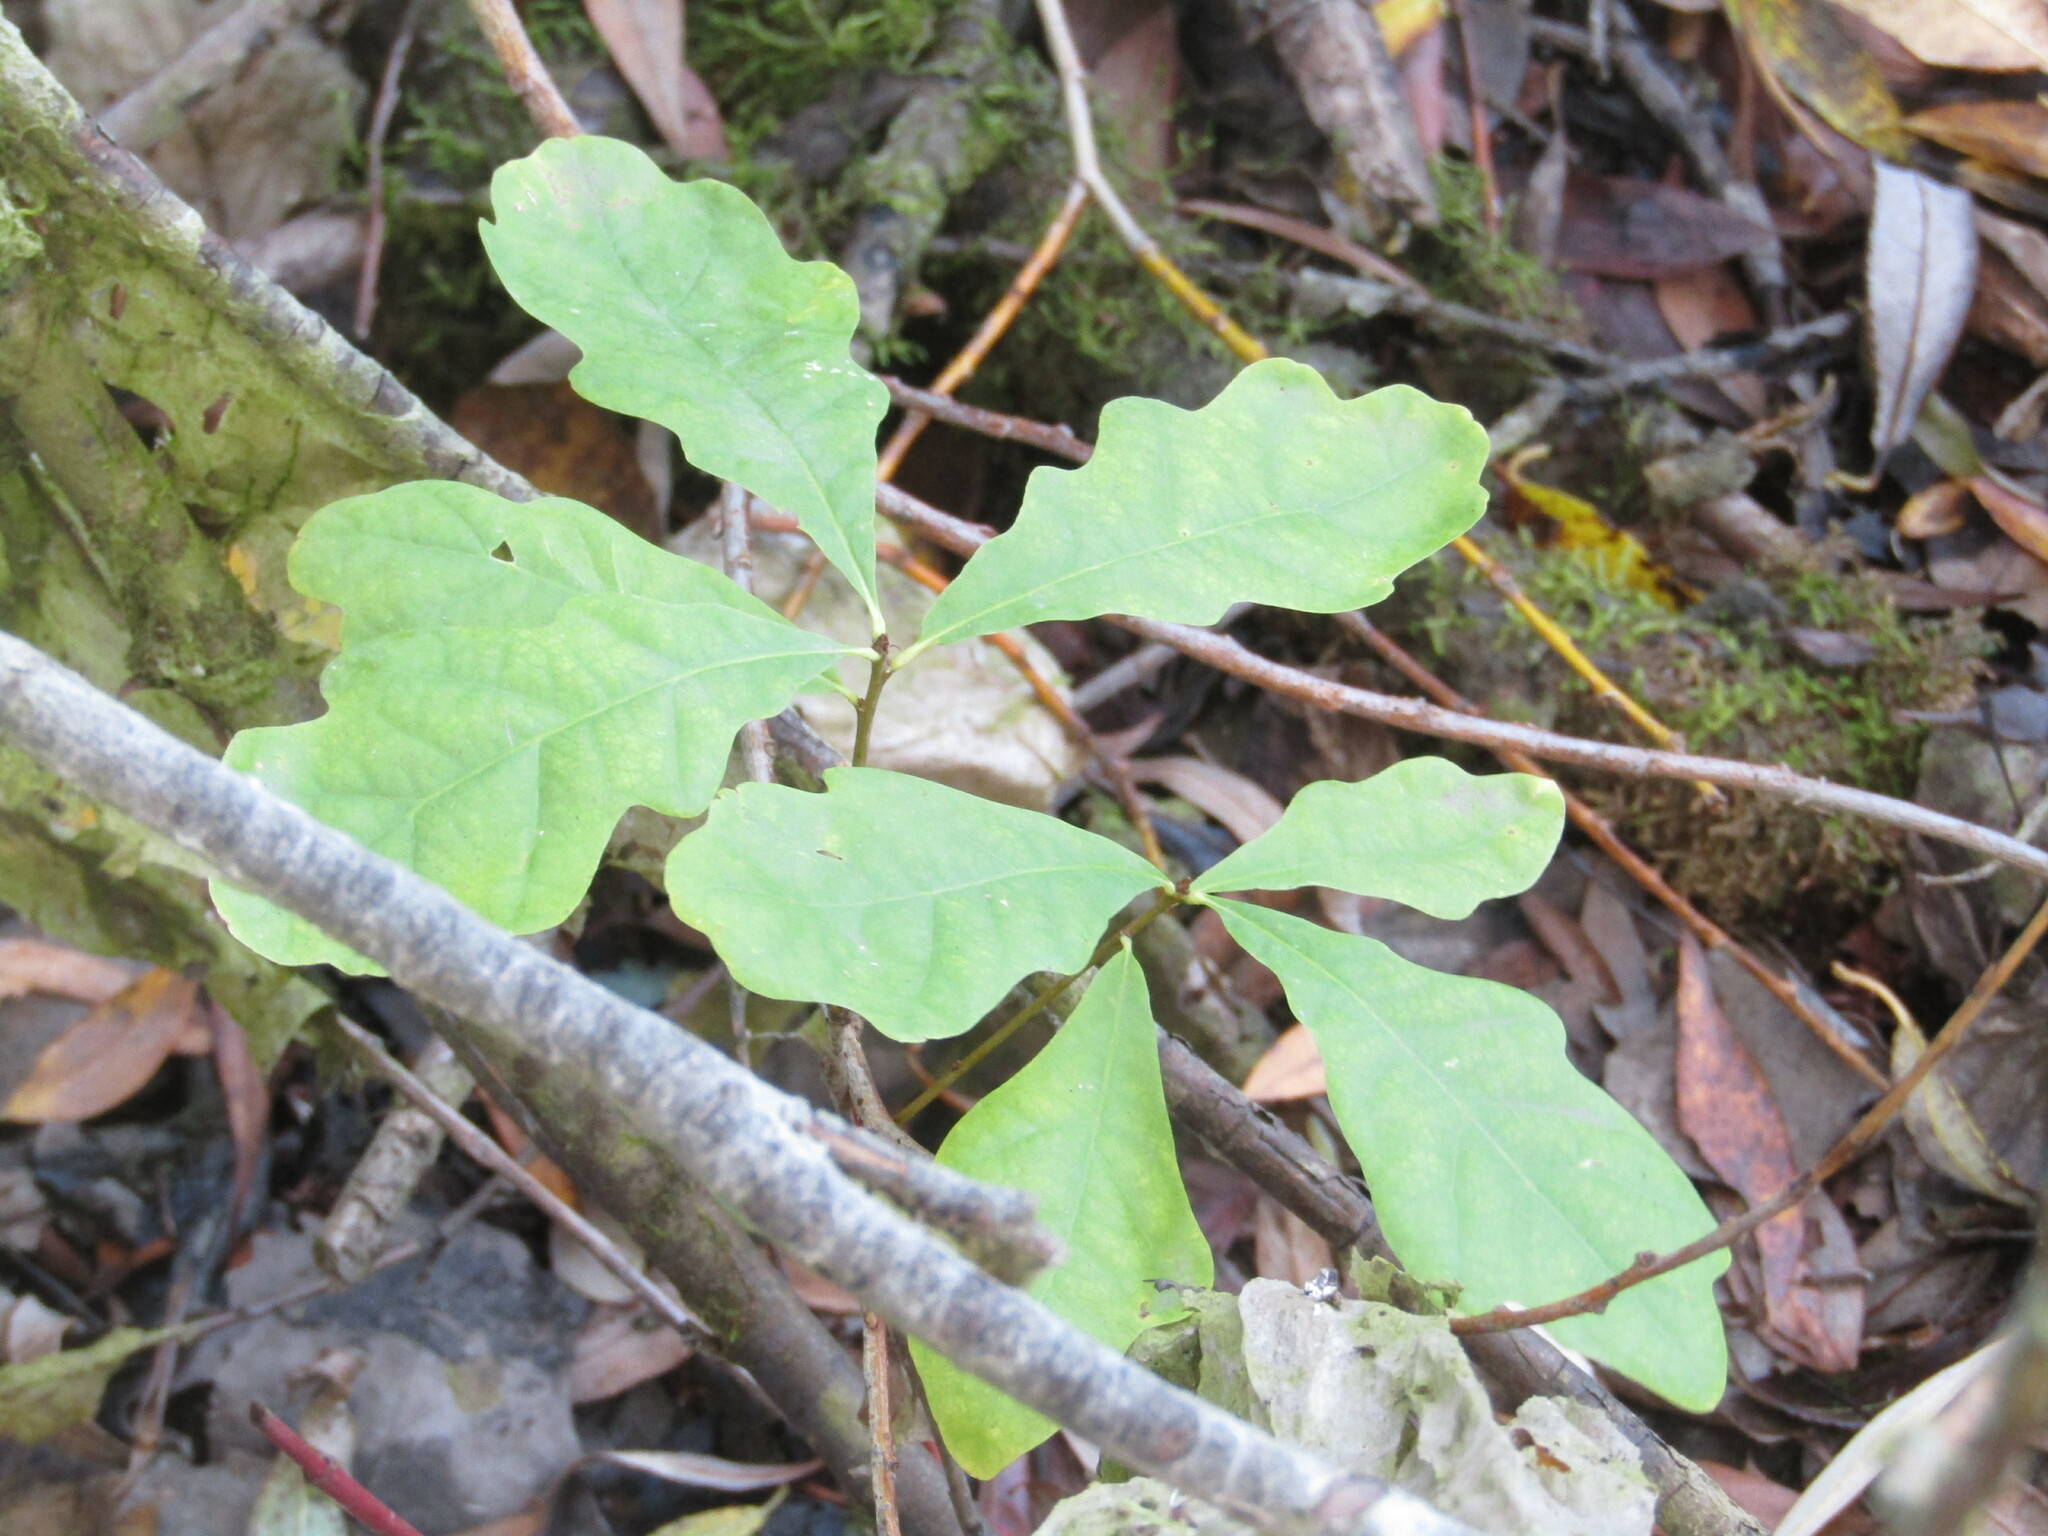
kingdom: Plantae
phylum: Tracheophyta
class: Magnoliopsida
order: Fagales
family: Fagaceae
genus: Quercus
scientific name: Quercus robur
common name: Pedunculate oak
